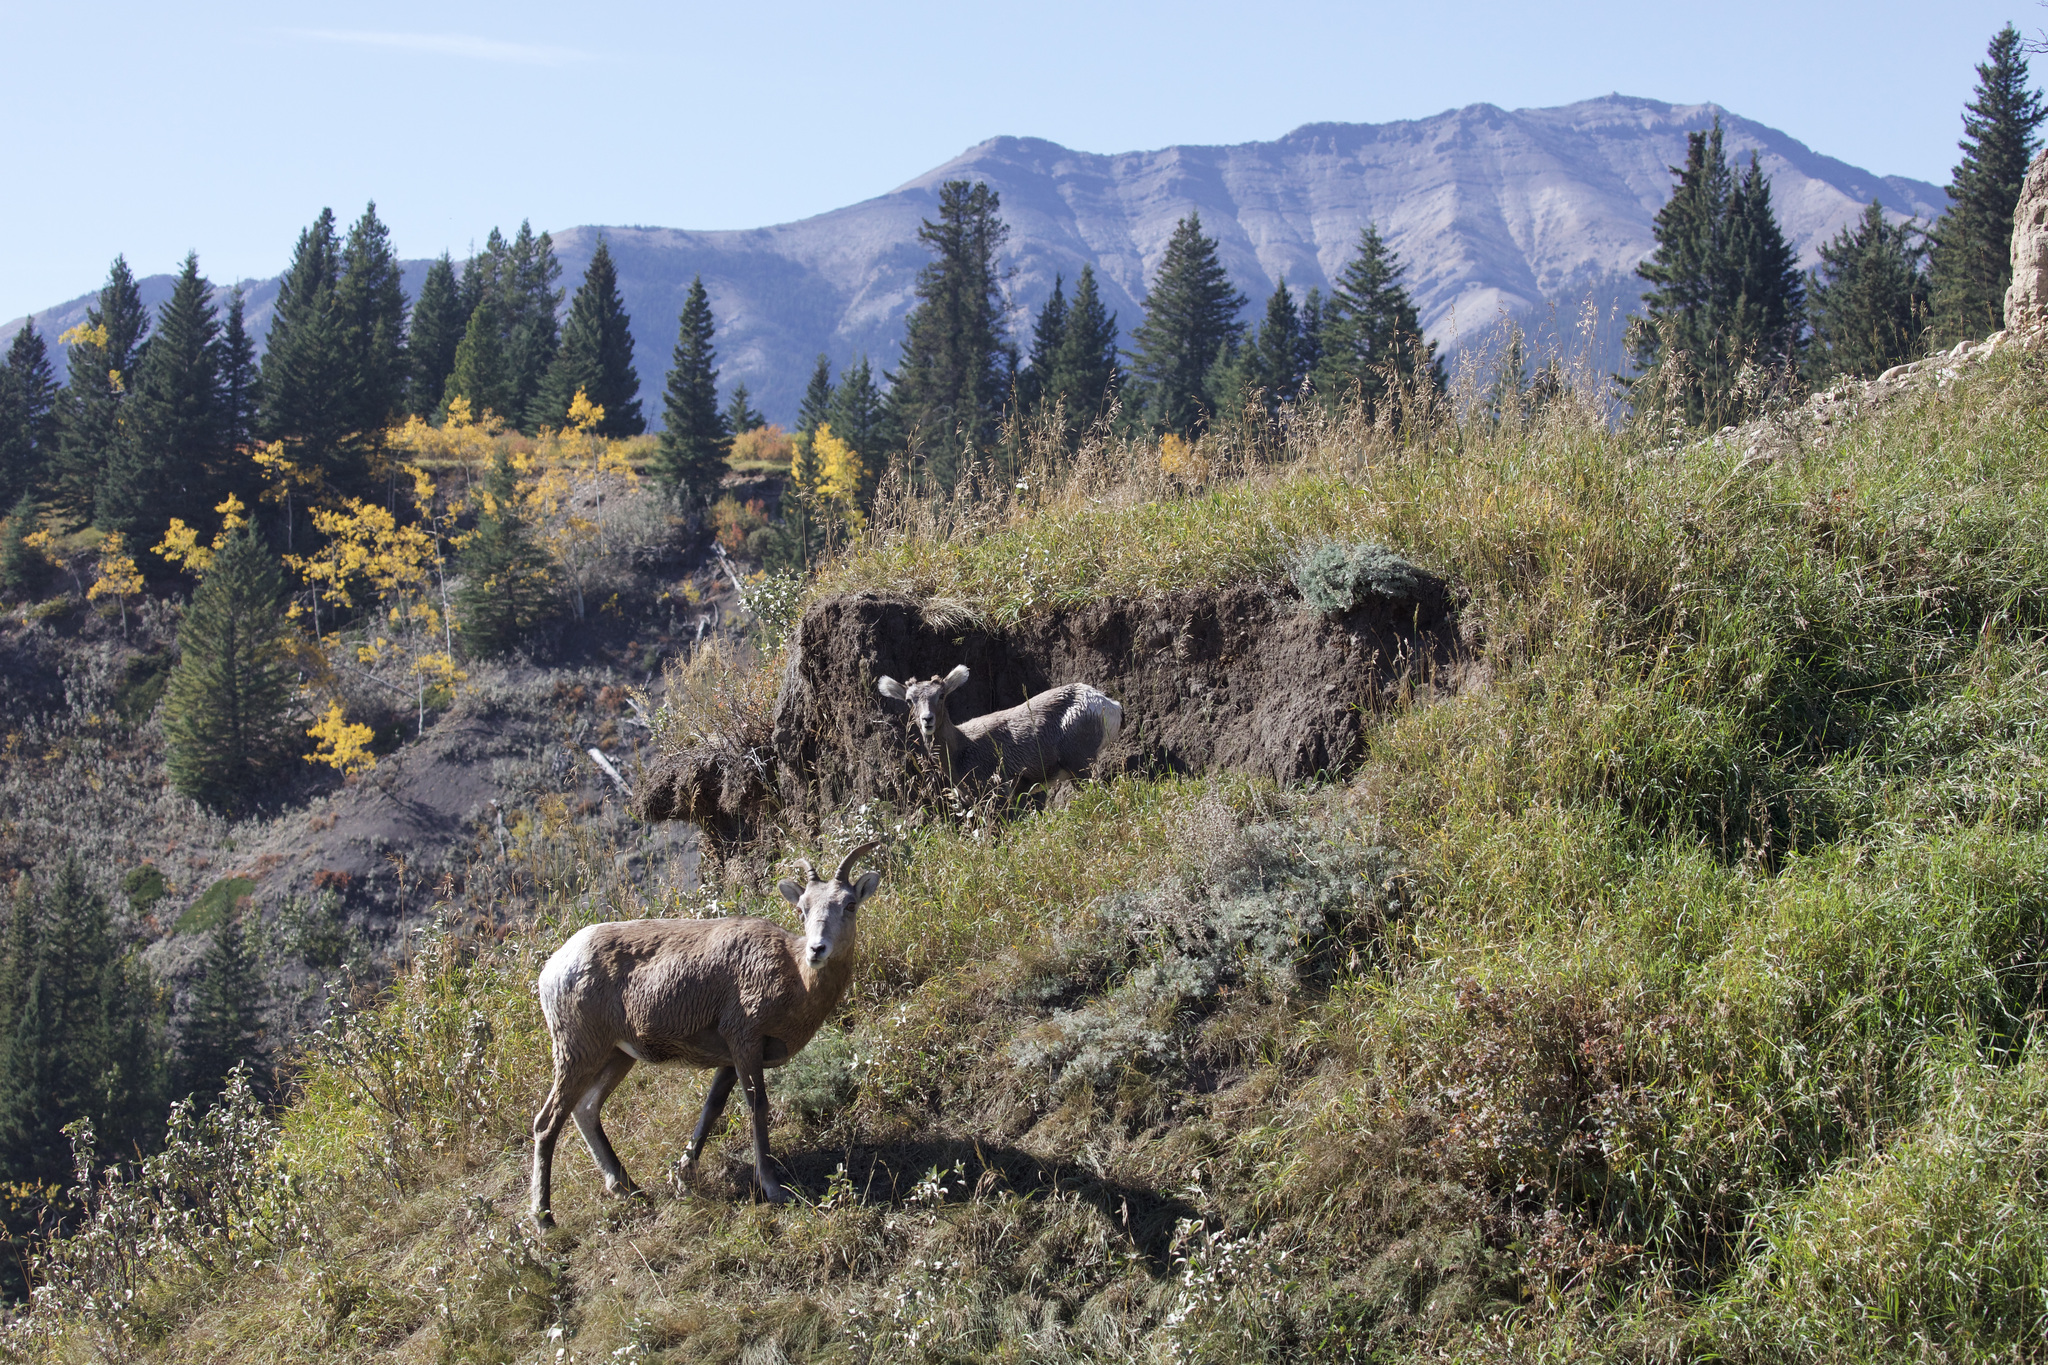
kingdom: Animalia
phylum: Chordata
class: Mammalia
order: Artiodactyla
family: Bovidae
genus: Ovis
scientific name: Ovis canadensis
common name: Bighorn sheep
